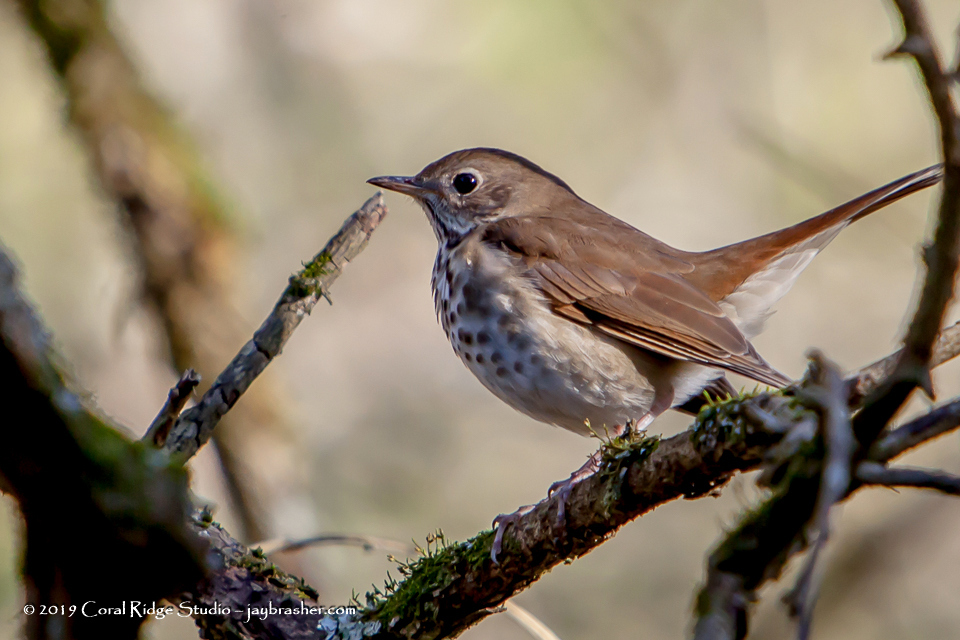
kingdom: Animalia
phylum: Chordata
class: Aves
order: Passeriformes
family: Turdidae
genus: Catharus
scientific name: Catharus guttatus
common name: Hermit thrush
